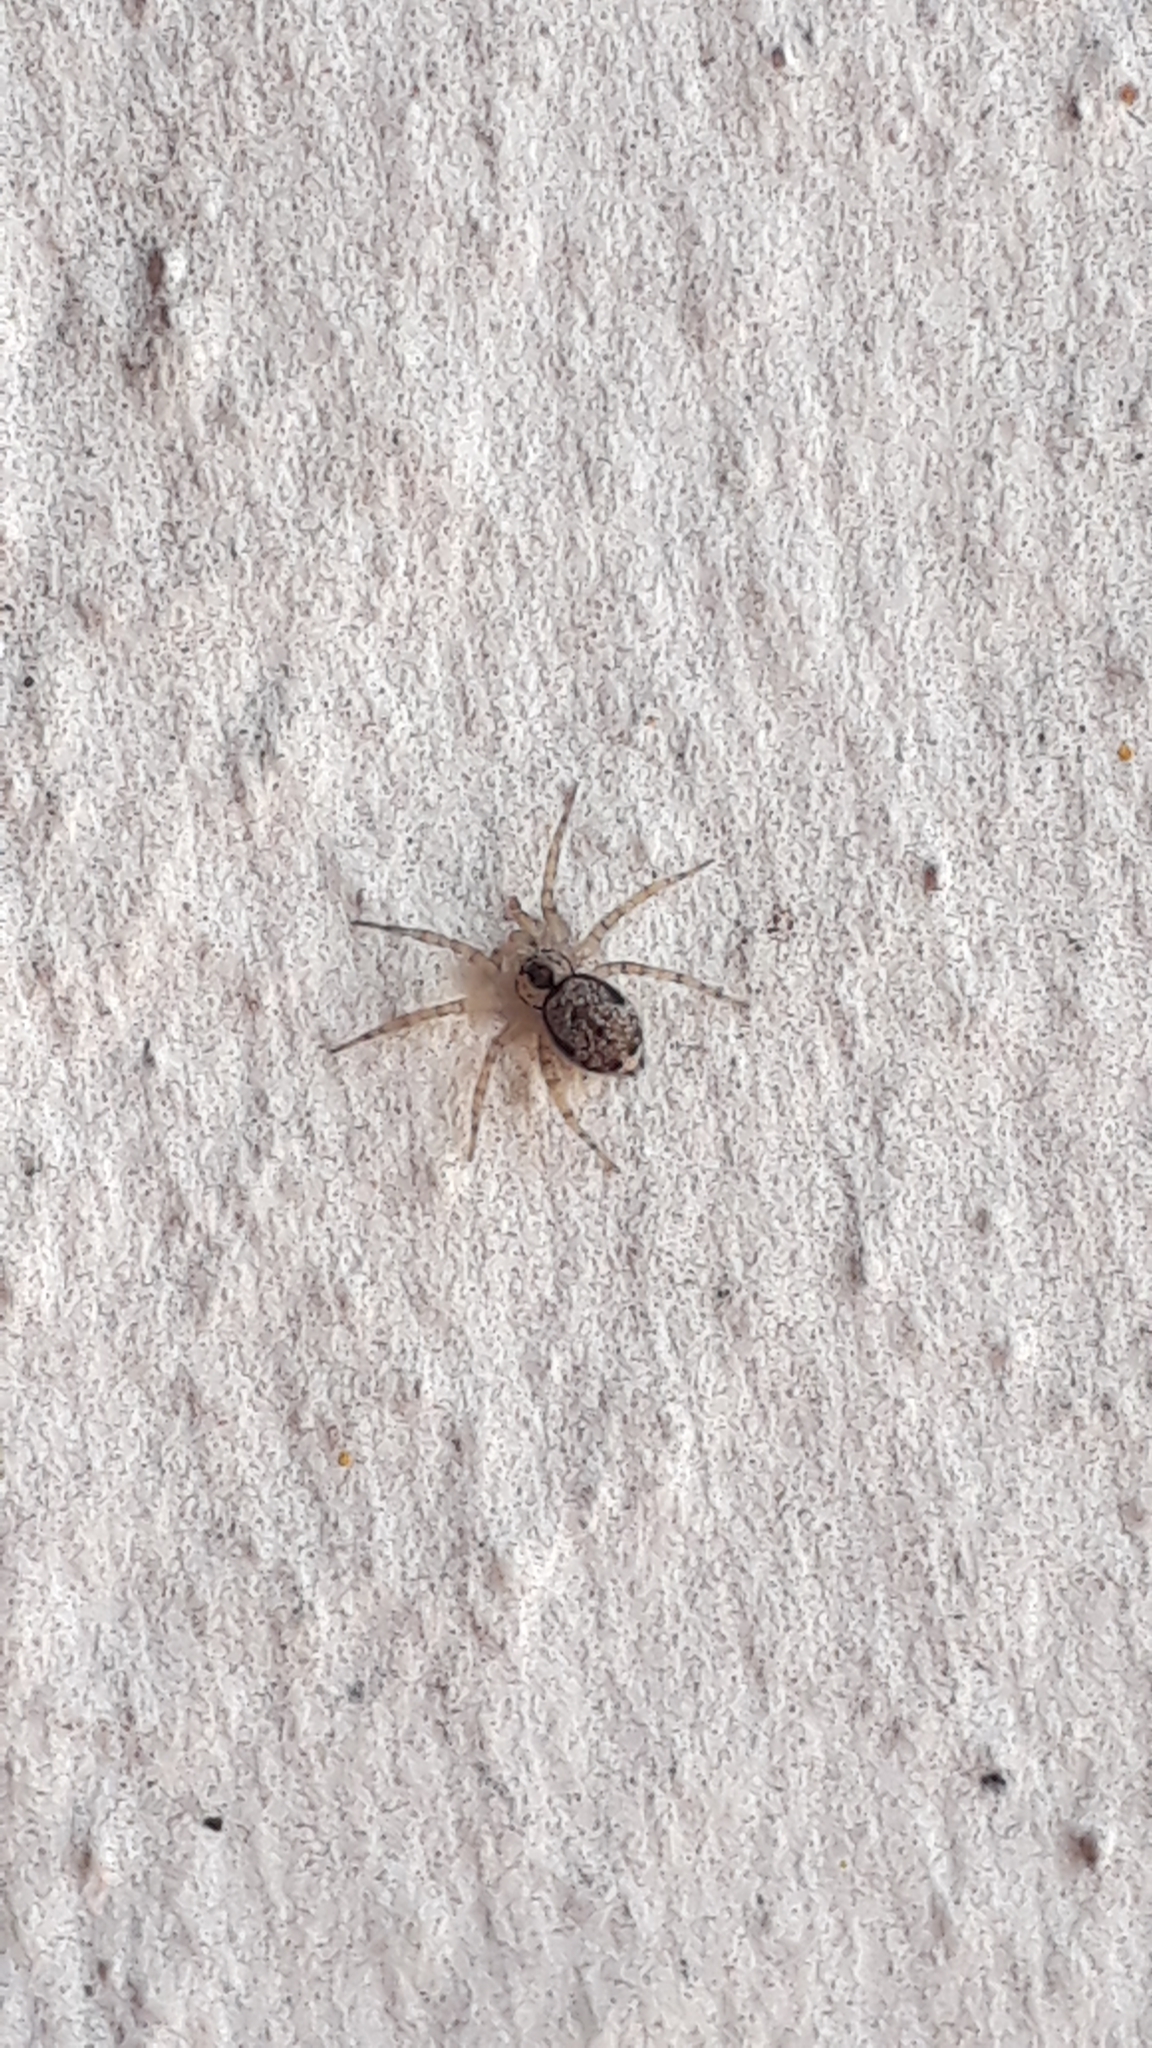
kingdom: Animalia
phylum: Arthropoda
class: Arachnida
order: Araneae
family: Oecobiidae
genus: Oecobius
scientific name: Oecobius navus
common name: Flatmesh weaver
